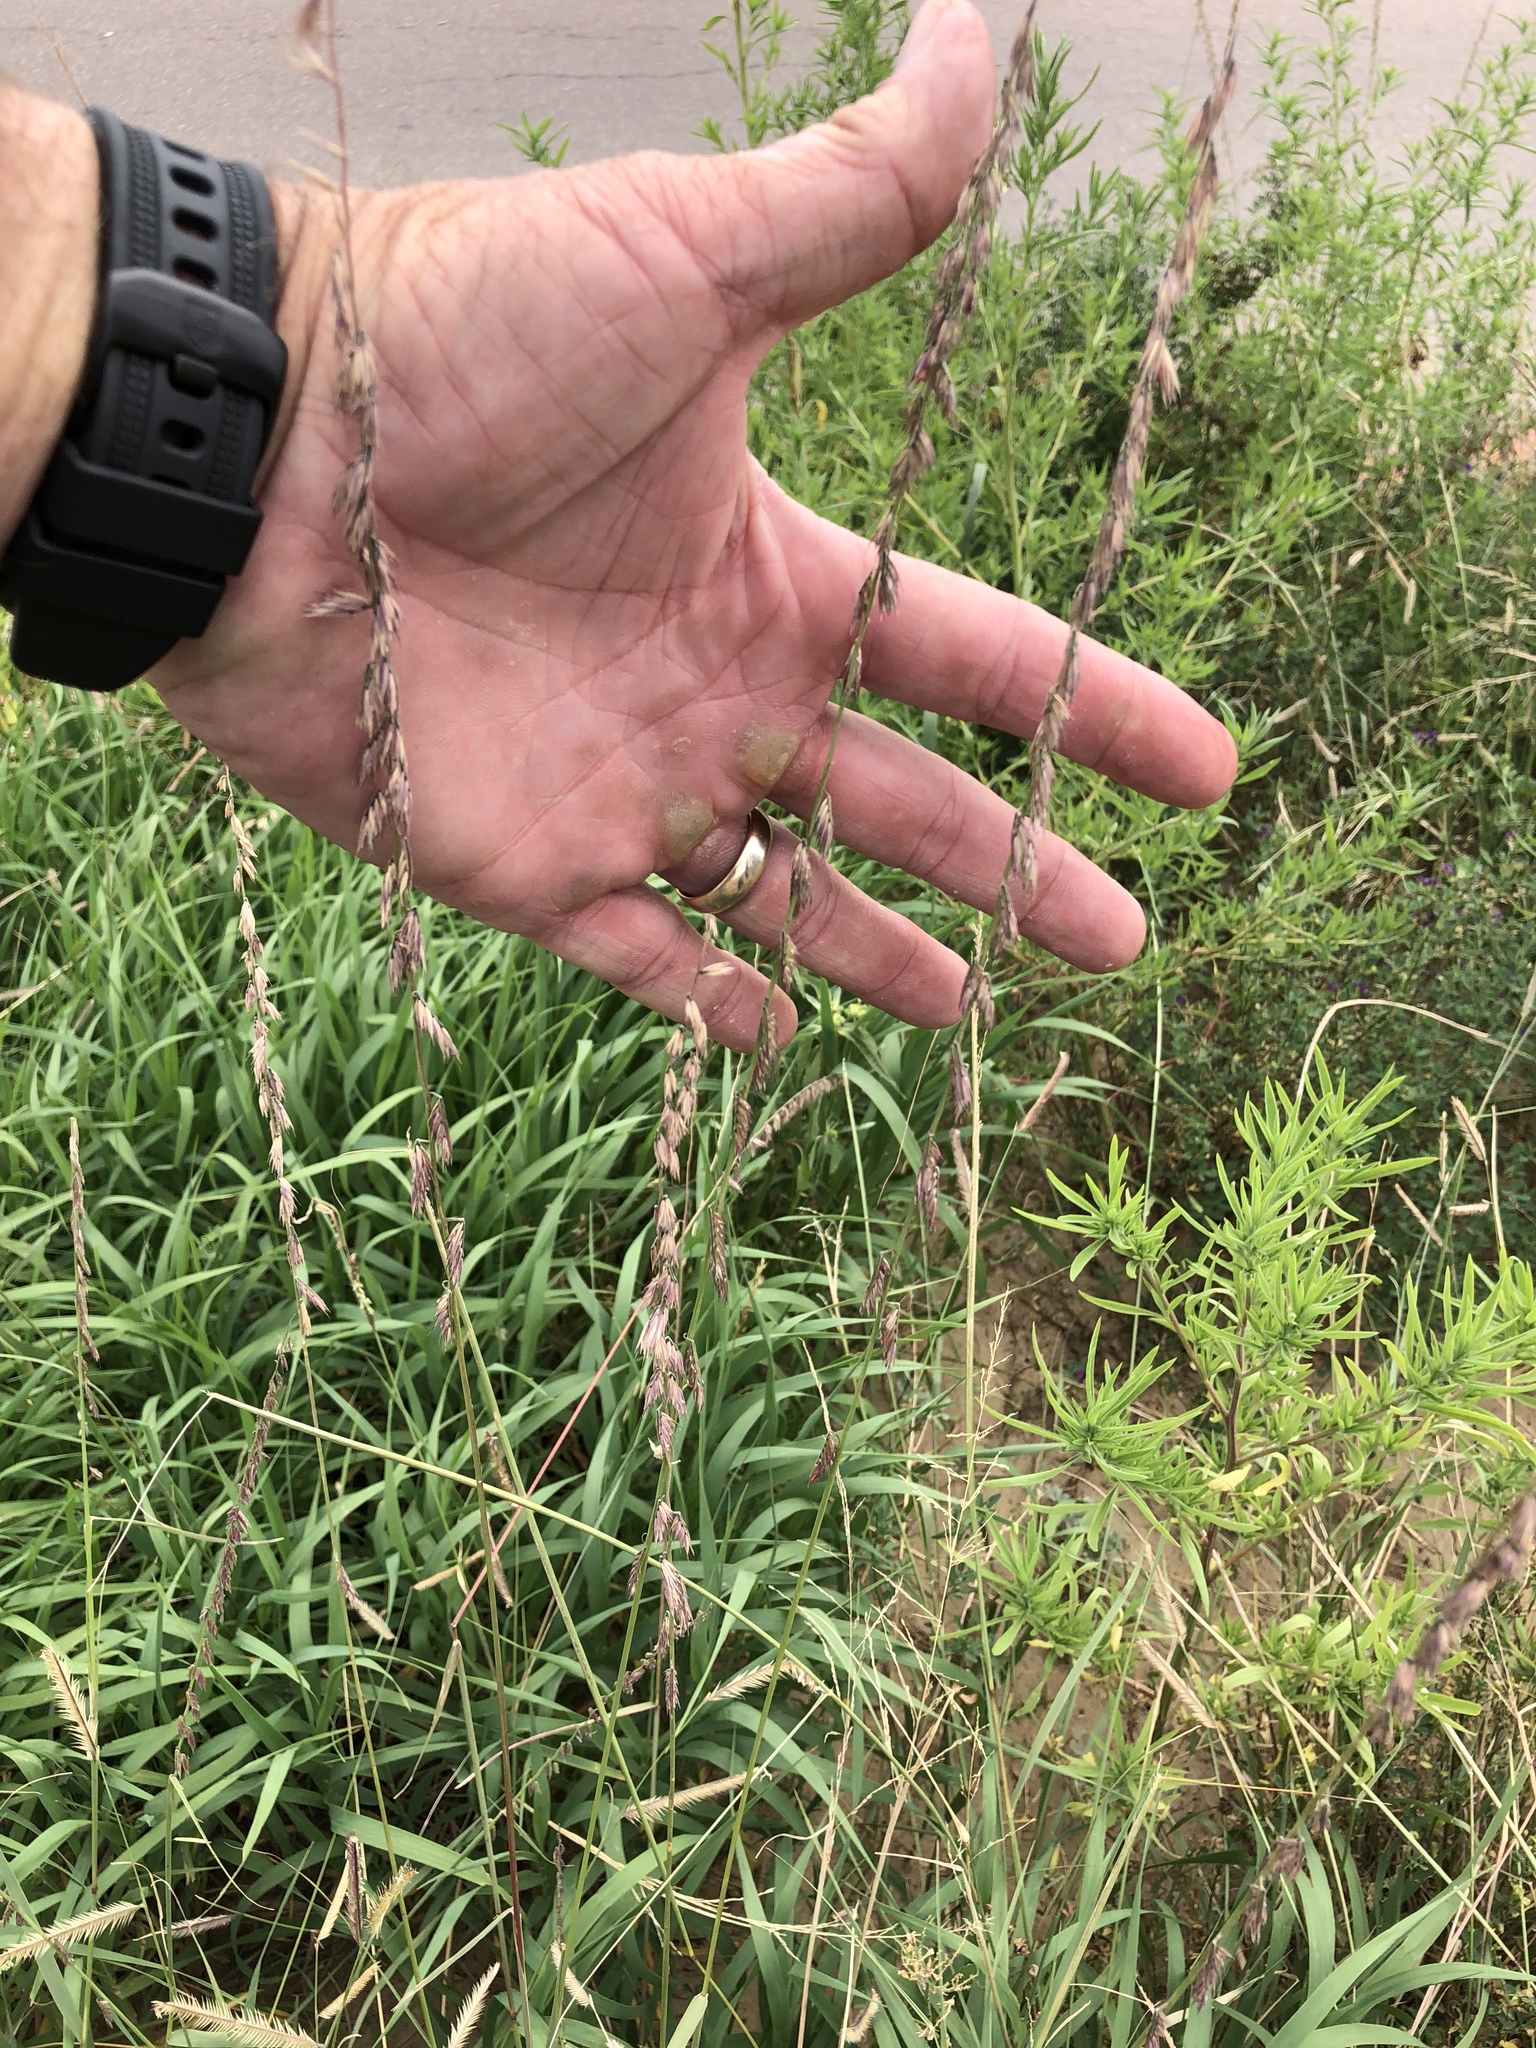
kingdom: Plantae
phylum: Tracheophyta
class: Liliopsida
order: Poales
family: Poaceae
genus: Bouteloua
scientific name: Bouteloua curtipendula
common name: Side-oats grama
